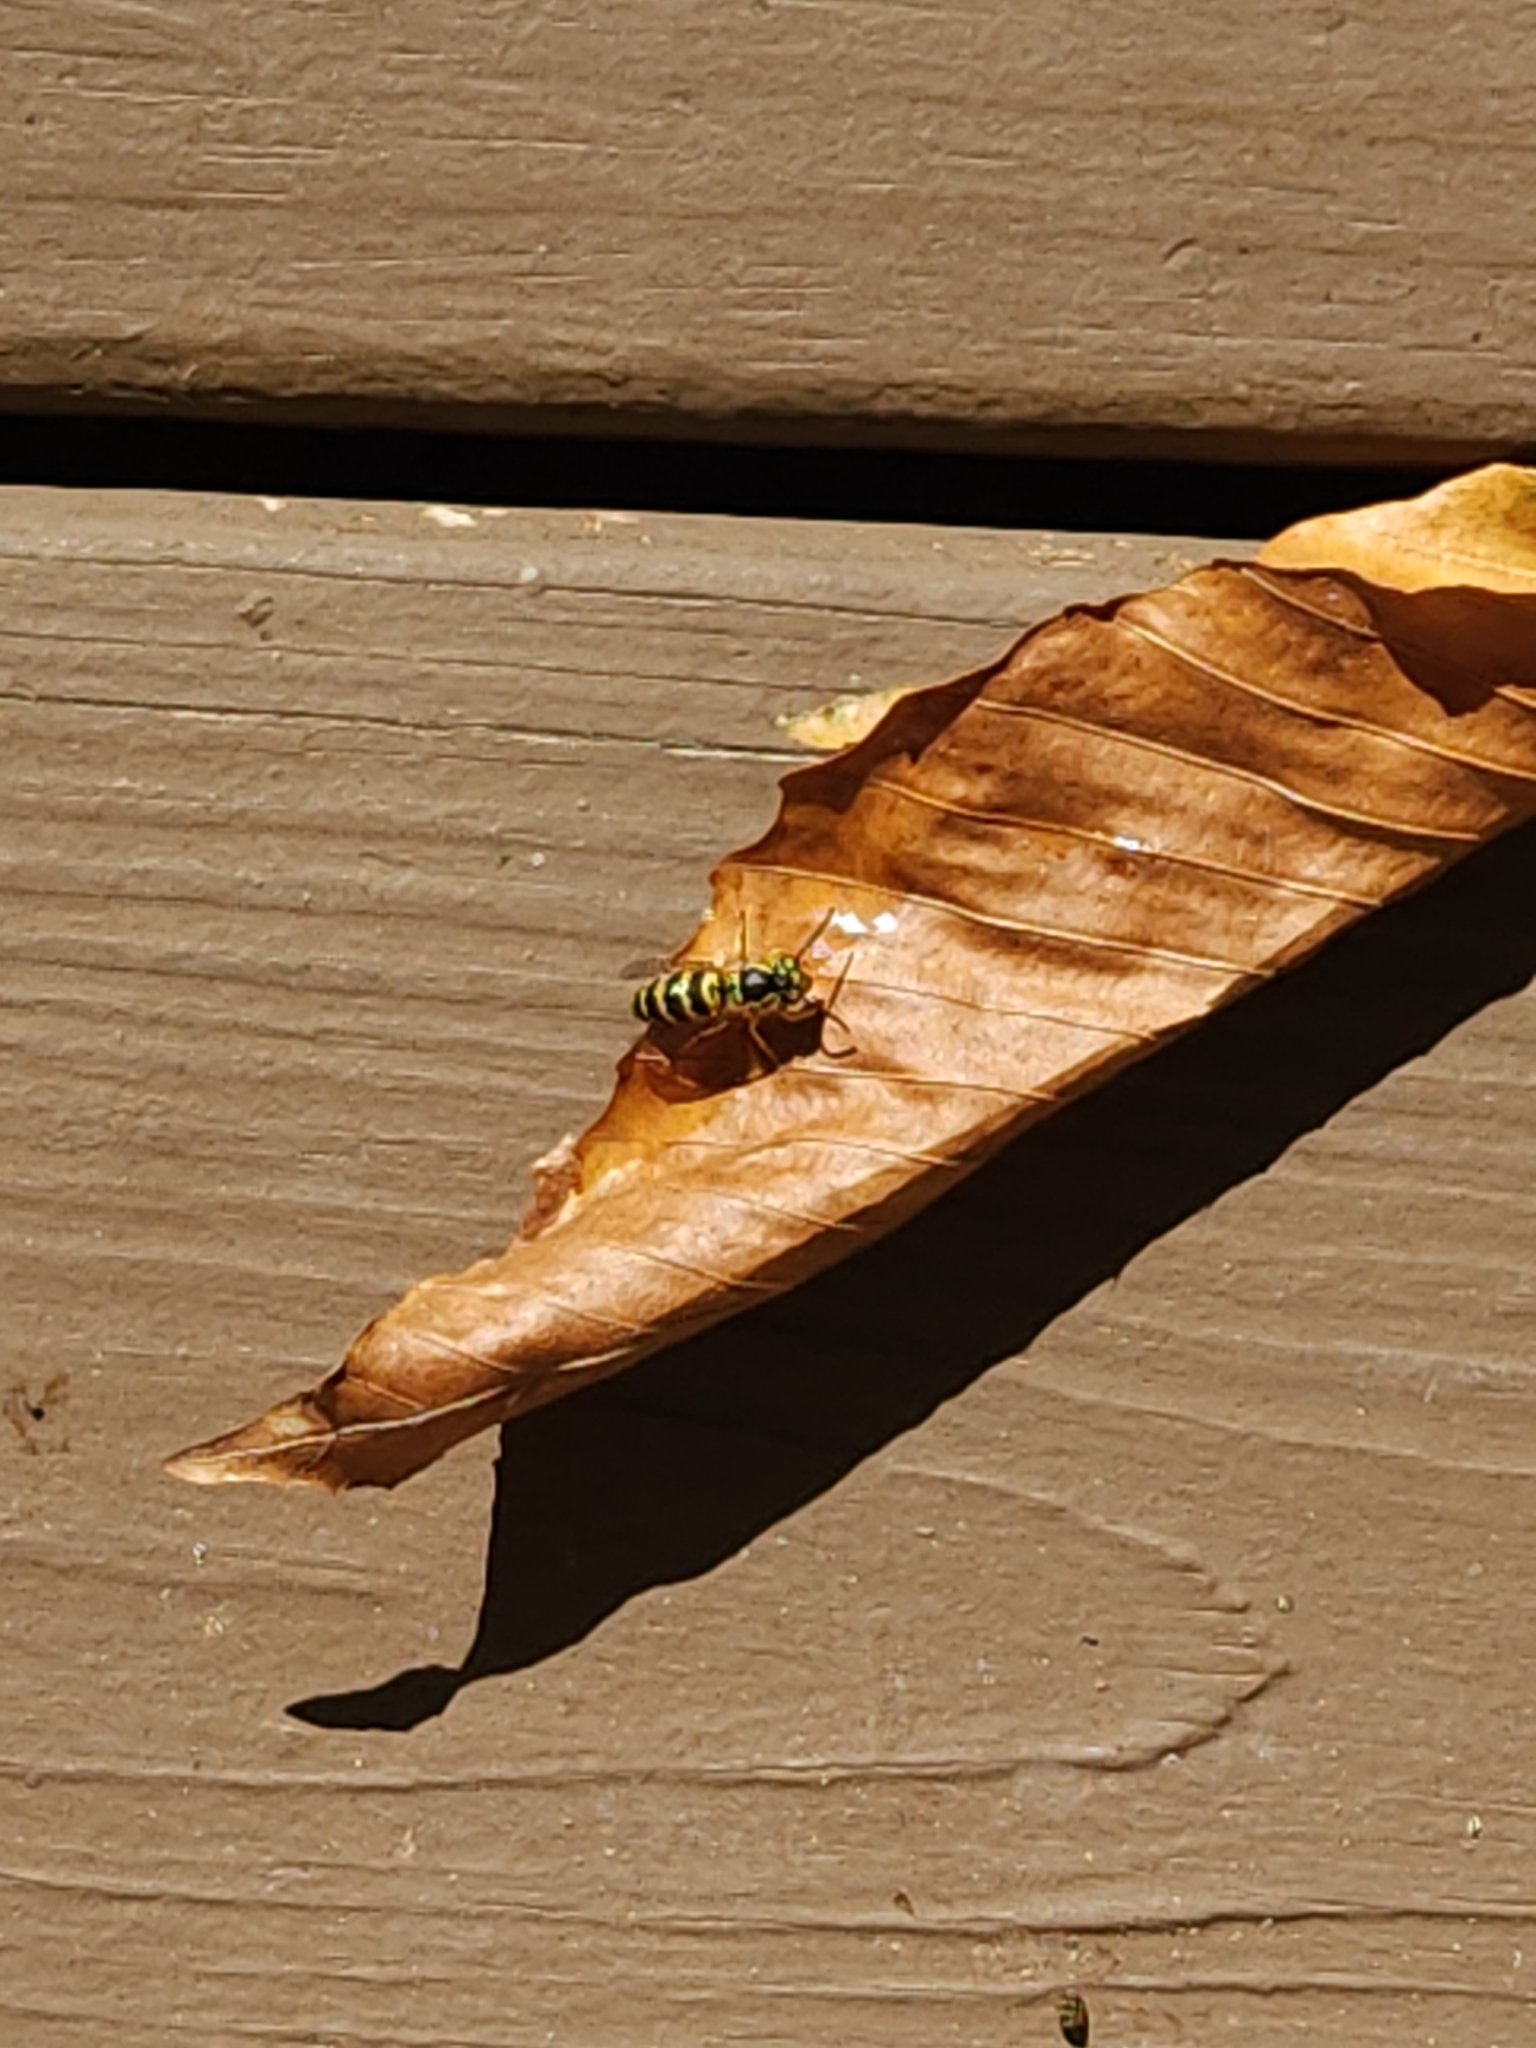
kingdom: Animalia
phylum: Arthropoda
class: Insecta
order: Hymenoptera
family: Vespidae
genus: Vespula
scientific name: Vespula maculifrons
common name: Eastern yellowjacket
